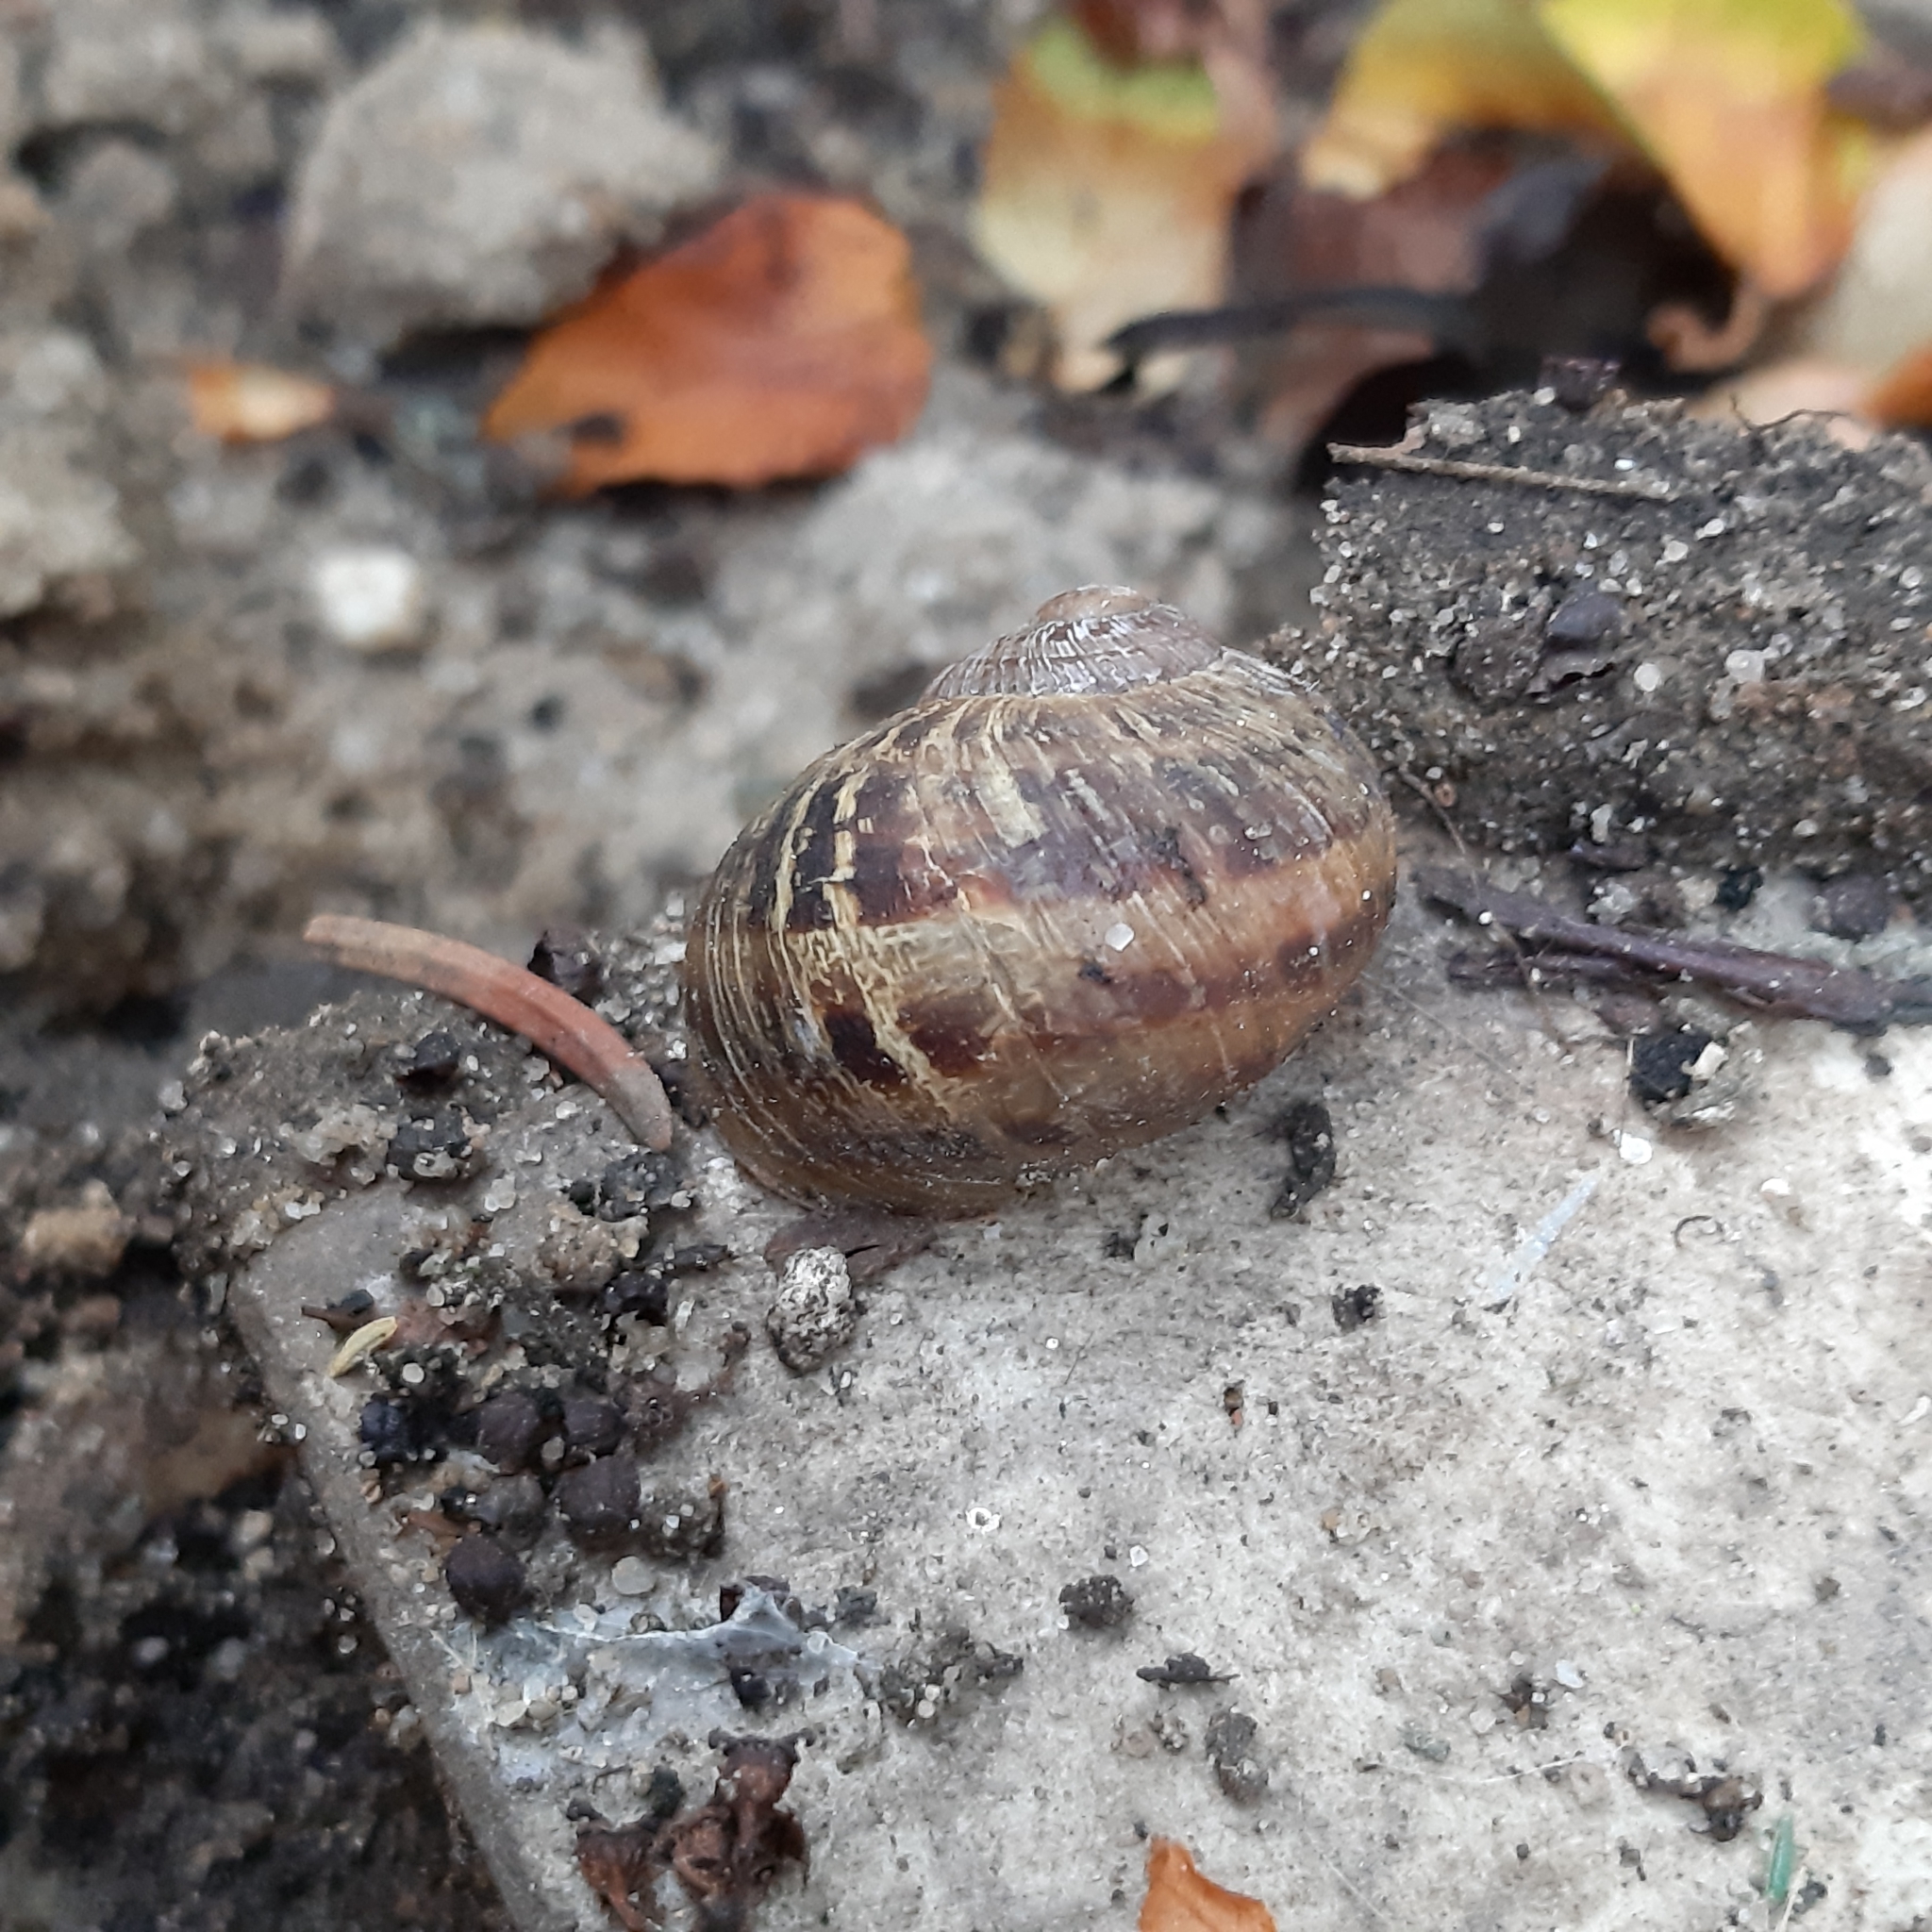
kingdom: Animalia
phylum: Mollusca
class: Gastropoda
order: Stylommatophora
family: Helicidae
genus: Cornu
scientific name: Cornu aspersum
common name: Brown garden snail
